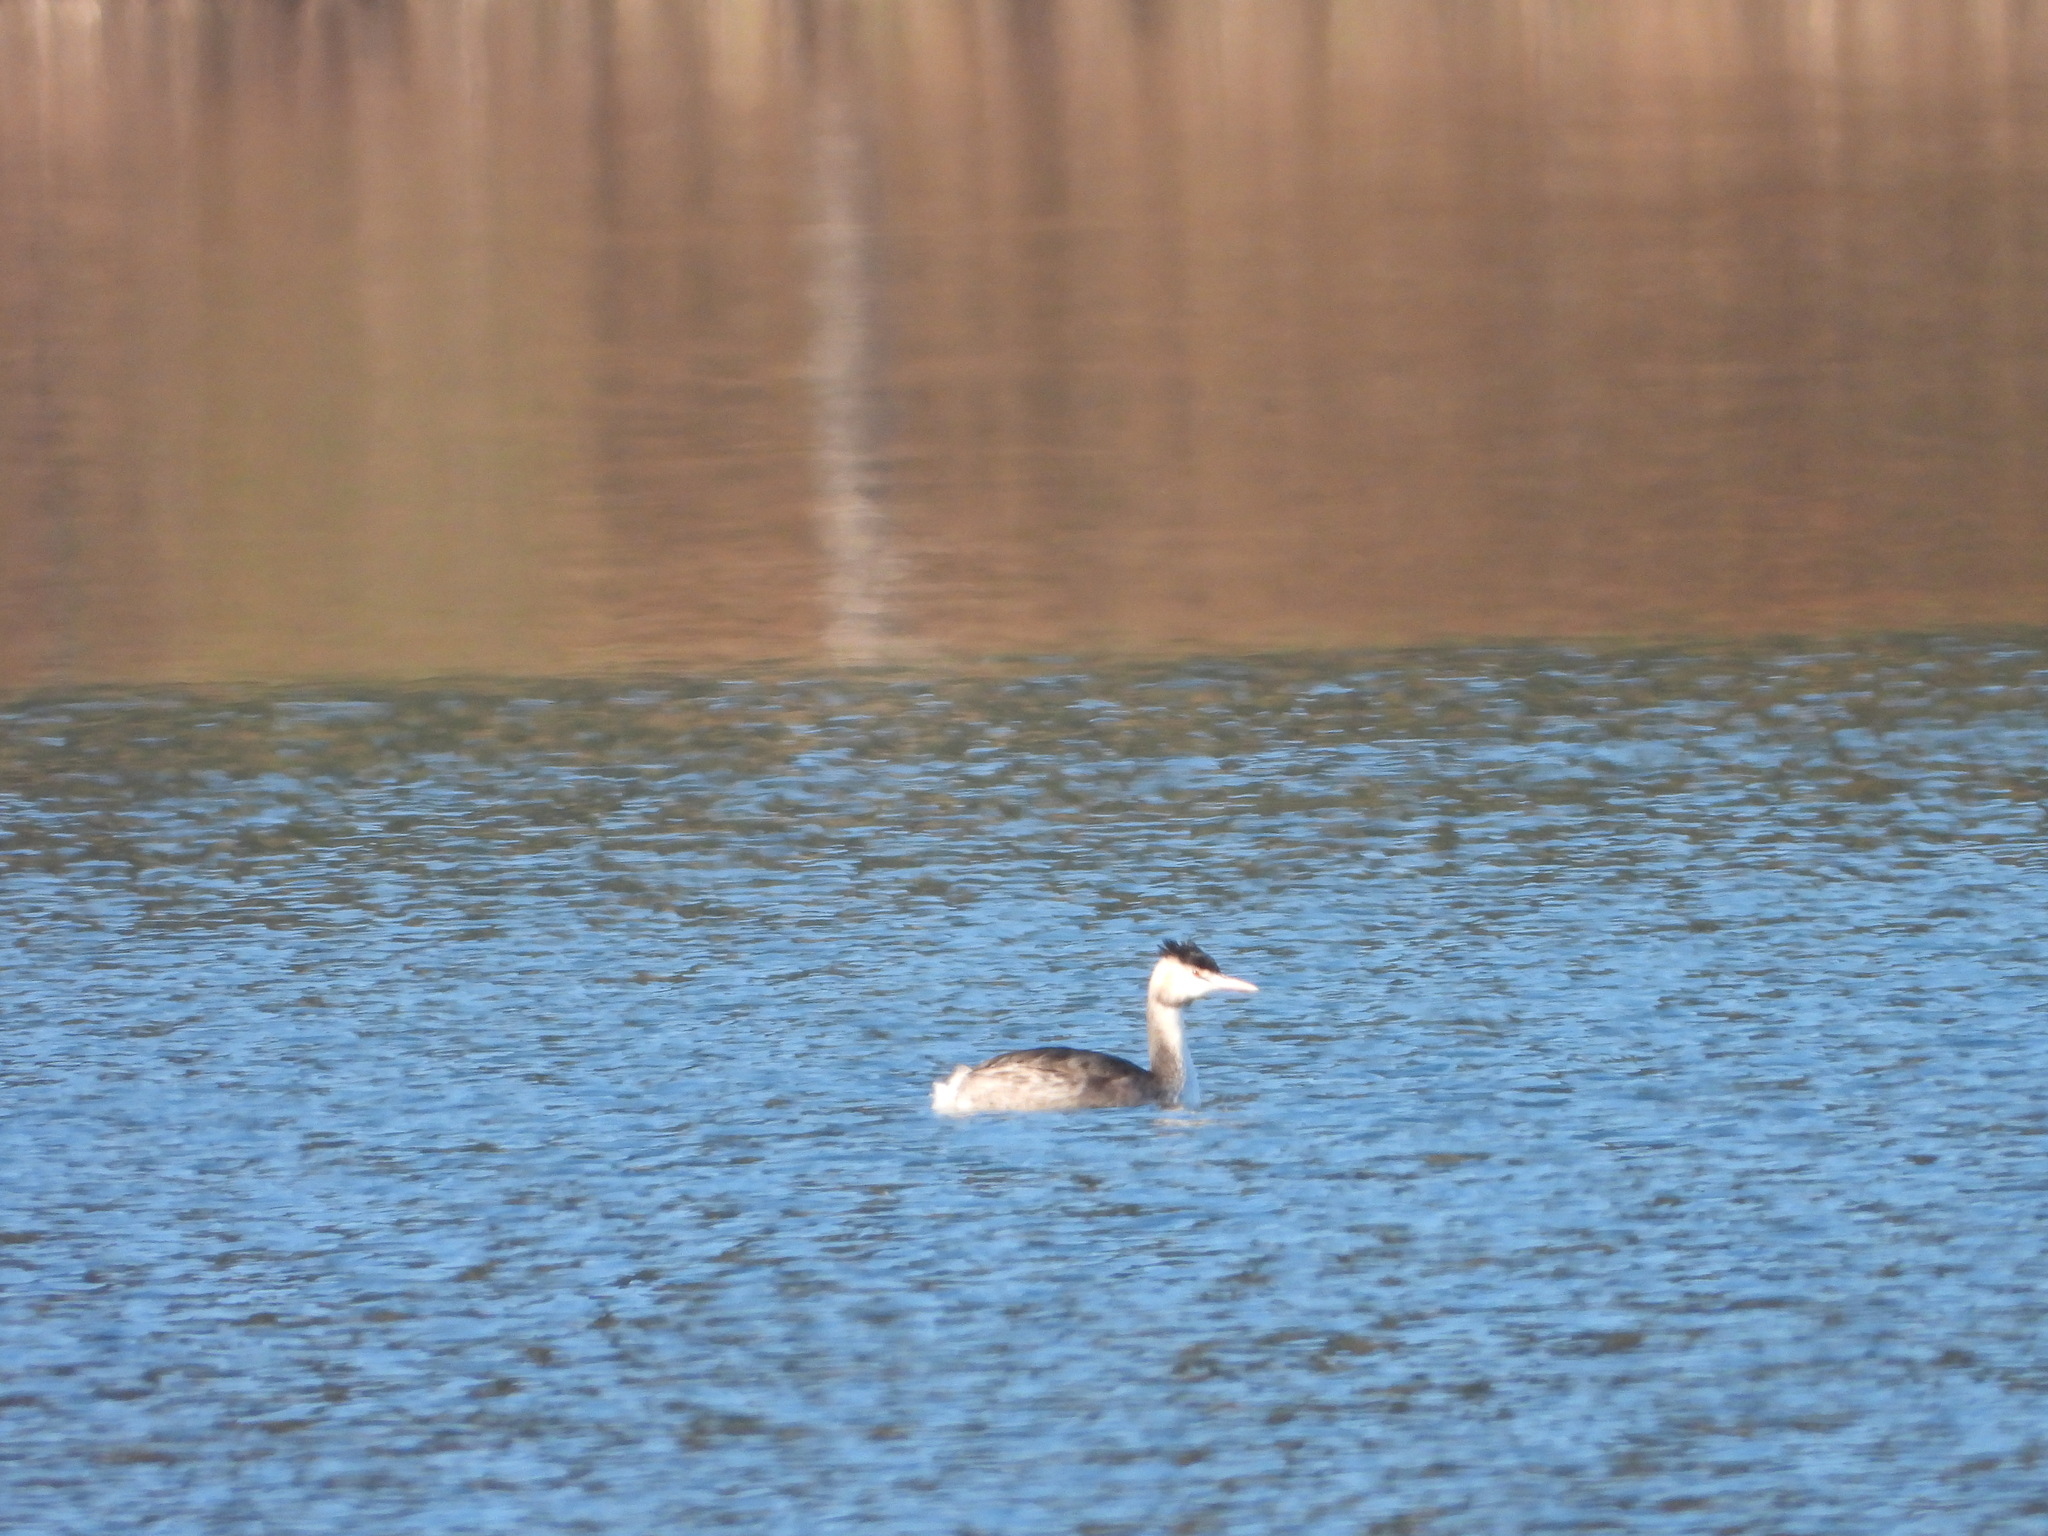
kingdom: Animalia
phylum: Chordata
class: Aves
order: Podicipediformes
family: Podicipedidae
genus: Podiceps
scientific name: Podiceps cristatus
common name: Great crested grebe
